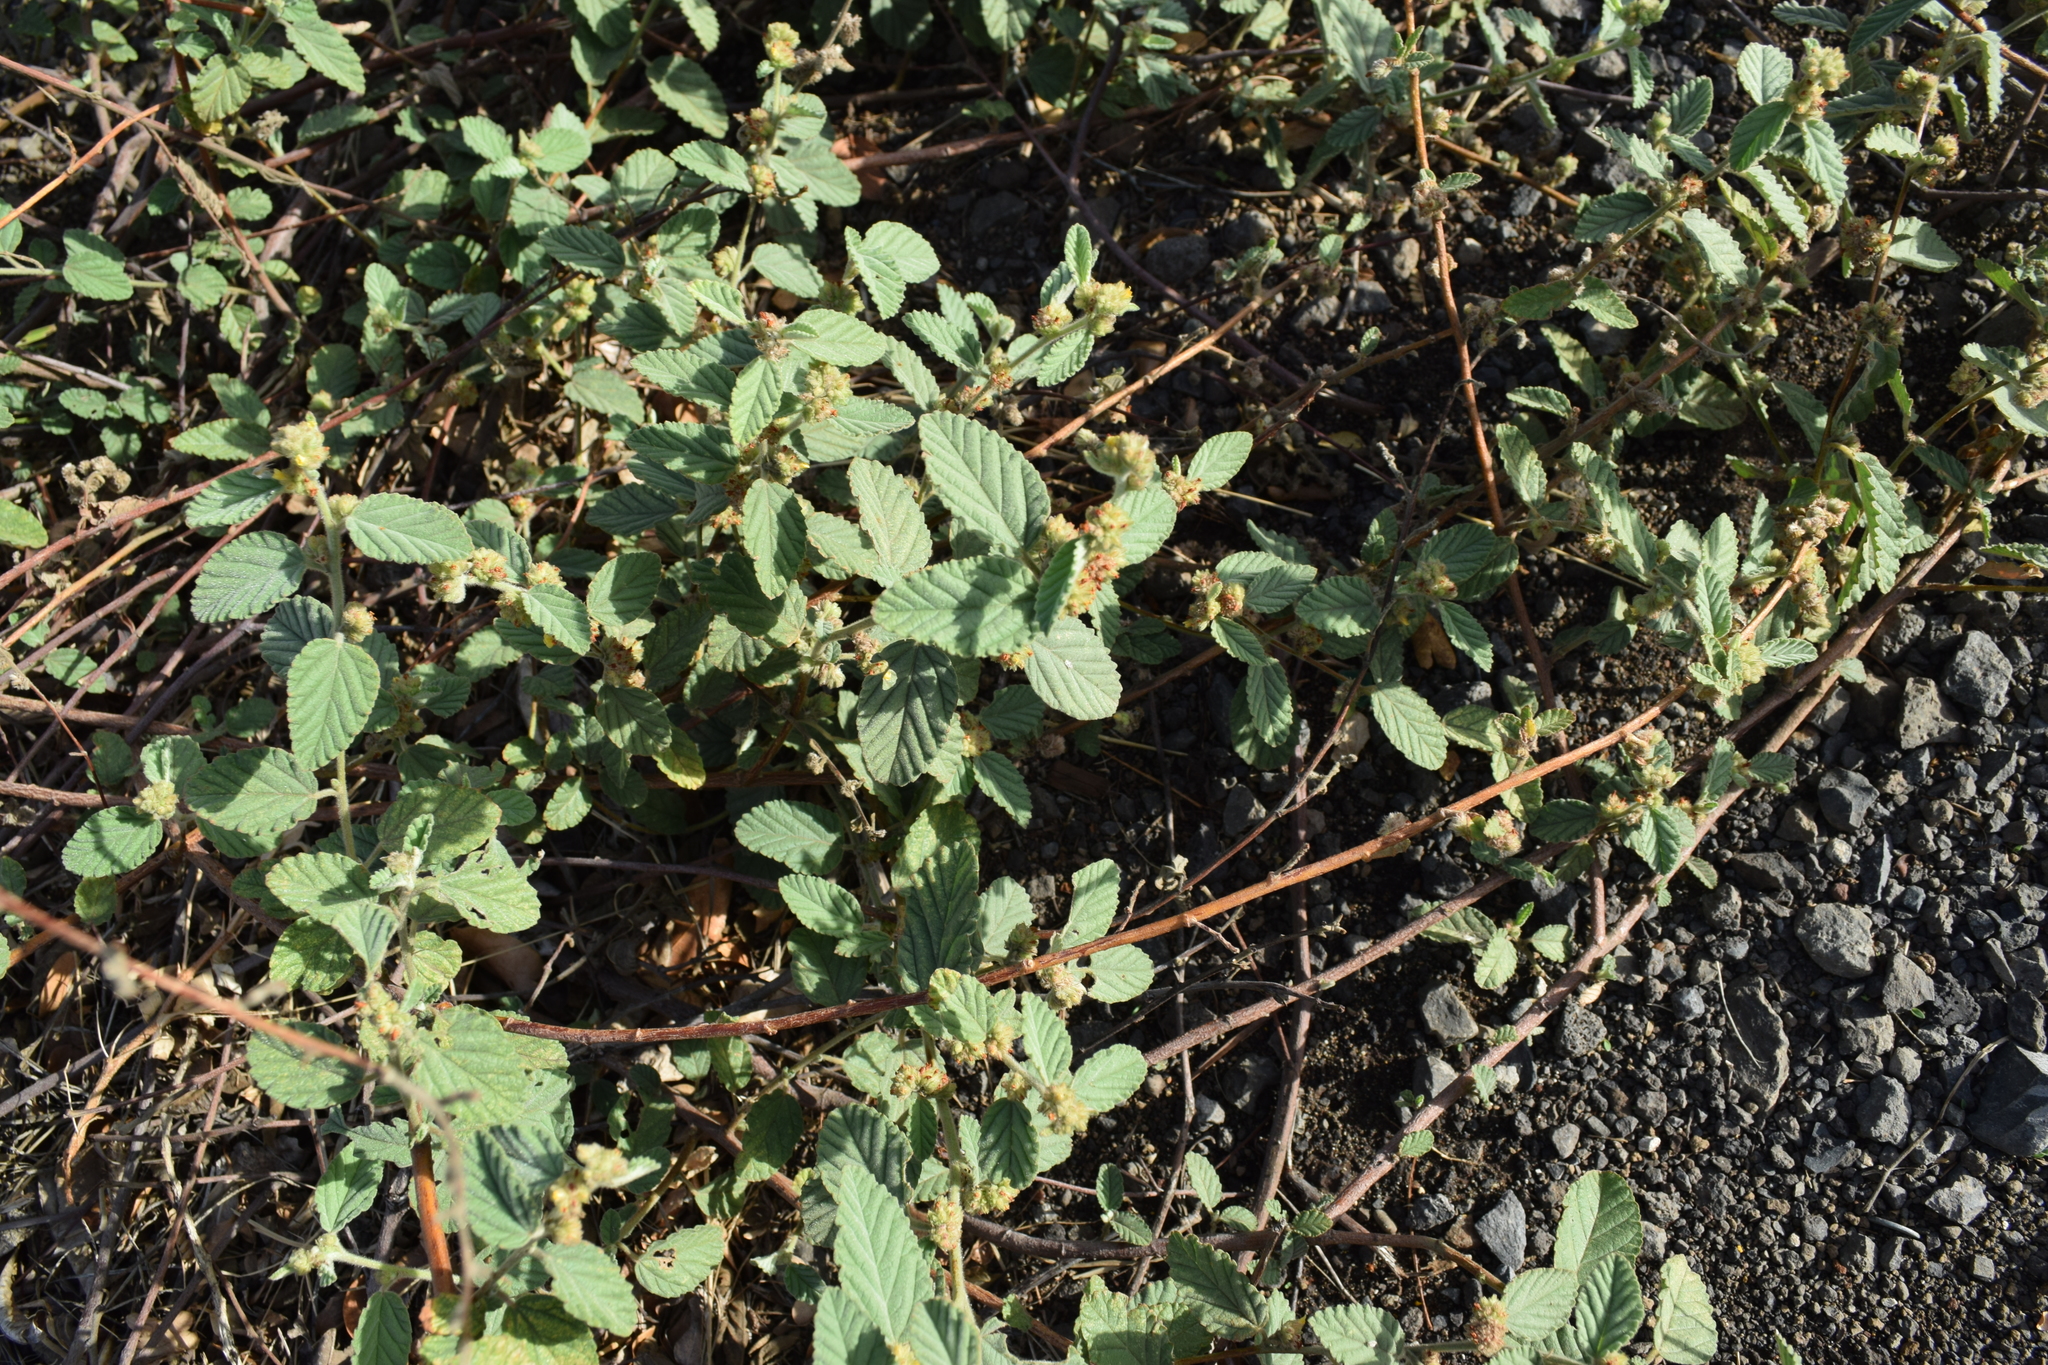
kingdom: Plantae
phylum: Tracheophyta
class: Magnoliopsida
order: Malvales
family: Malvaceae
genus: Waltheria
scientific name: Waltheria indica
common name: Leather-coat
